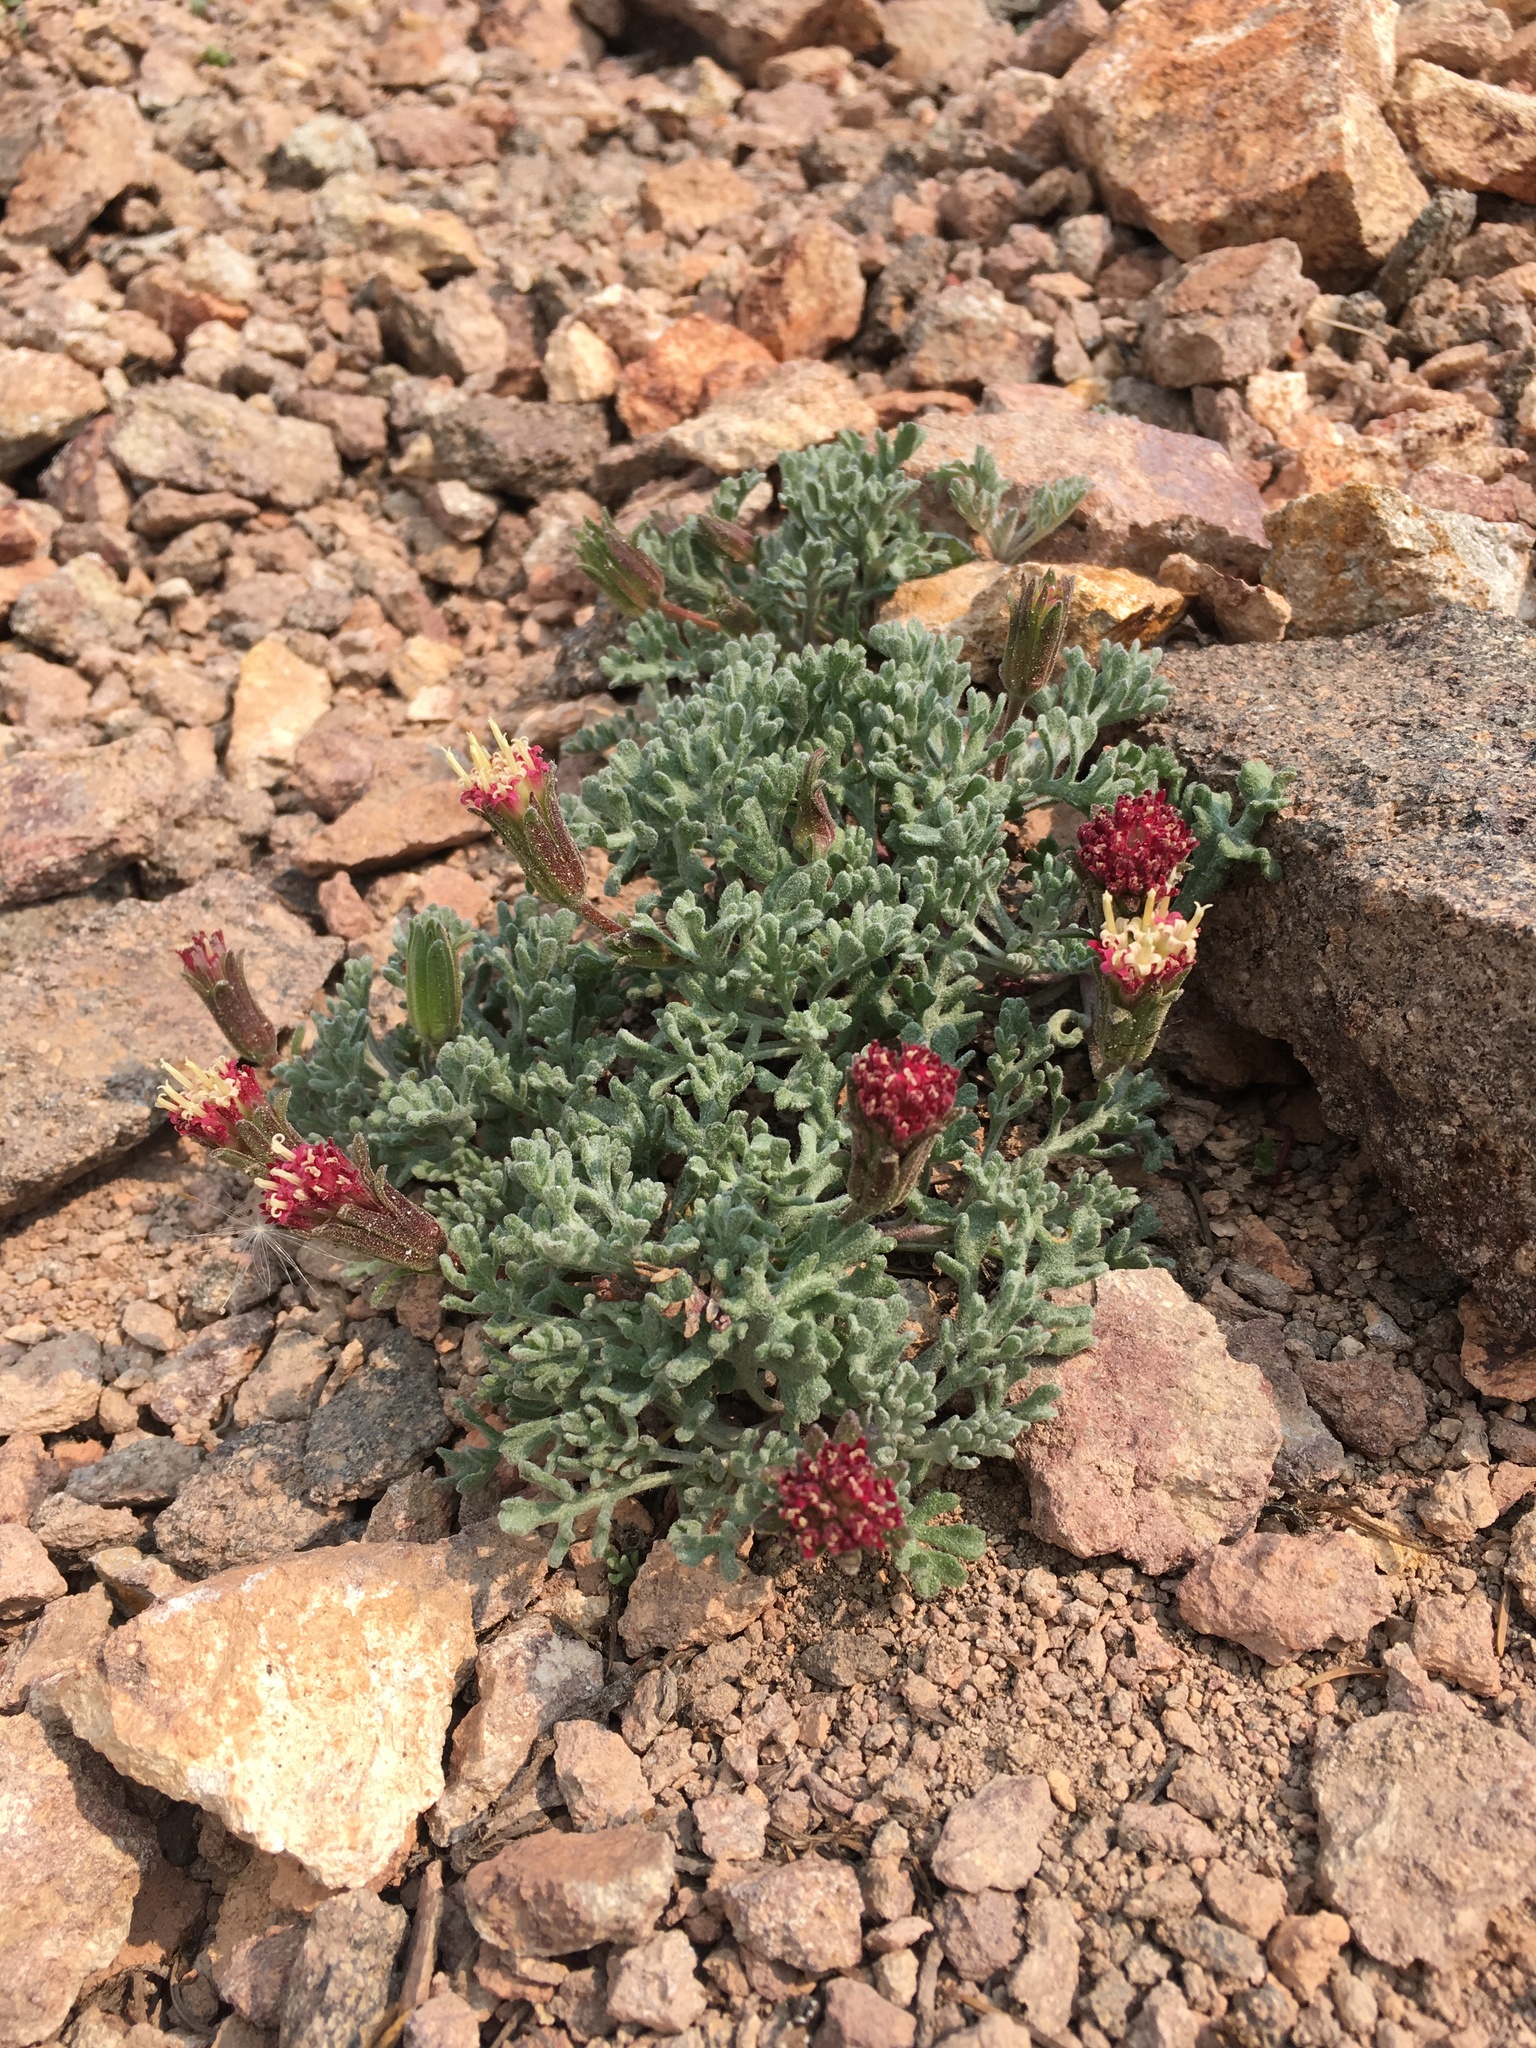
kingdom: Plantae
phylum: Tracheophyta
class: Magnoliopsida
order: Asterales
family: Asteraceae
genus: Chaenactis
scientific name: Chaenactis nevadensis
